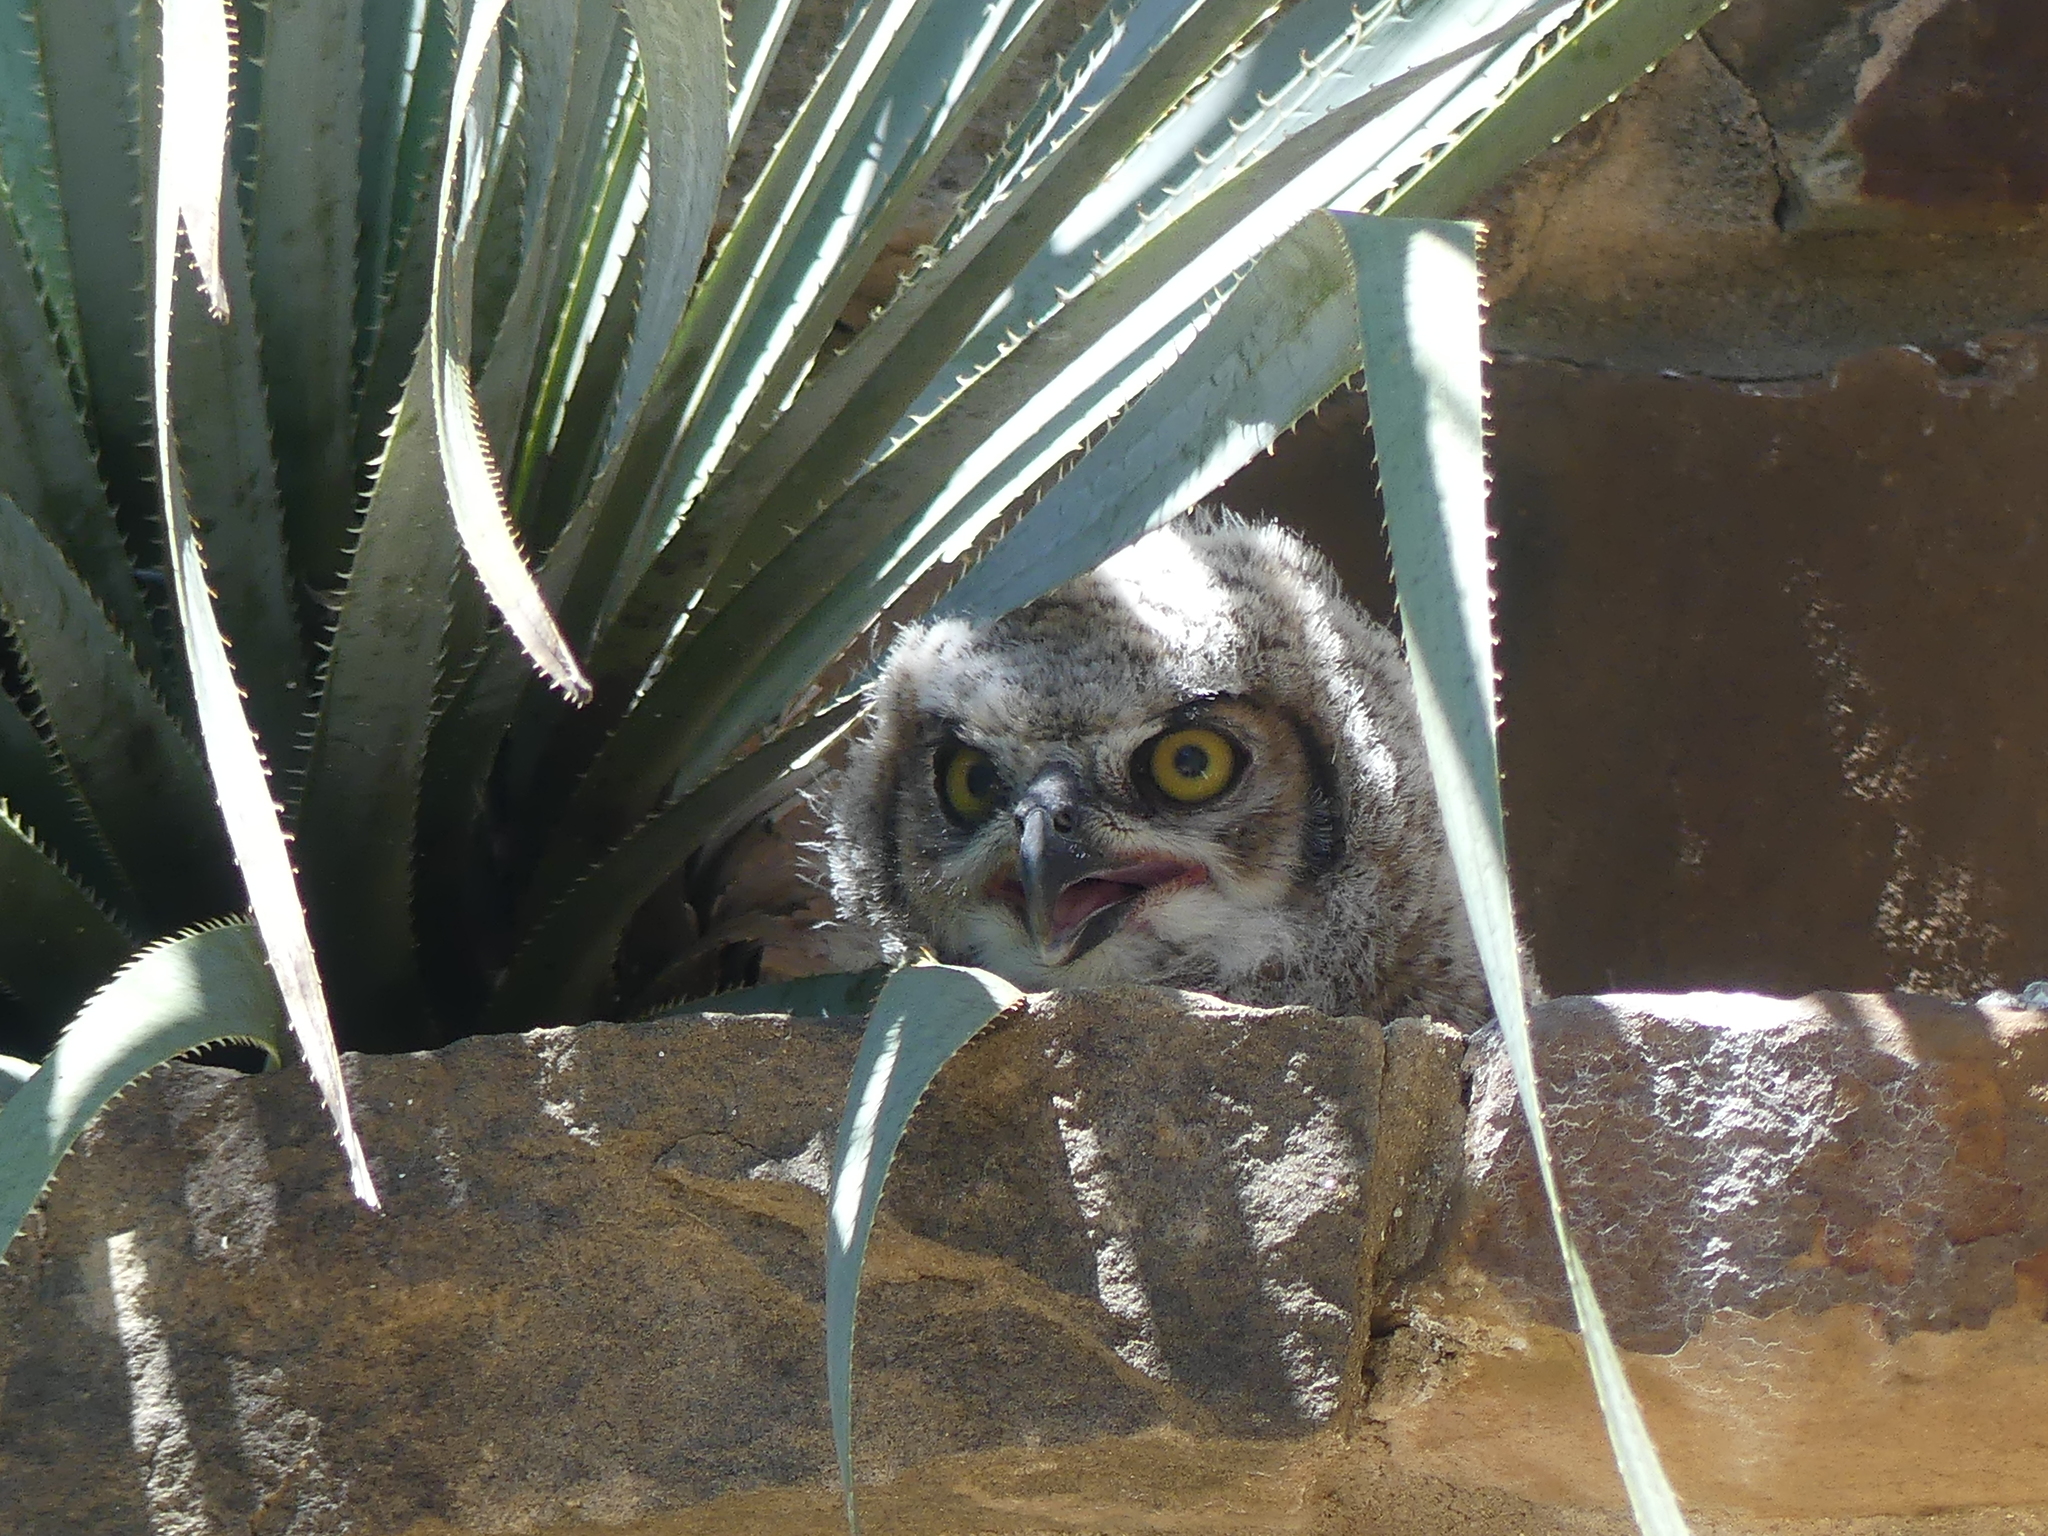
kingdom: Animalia
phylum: Chordata
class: Aves
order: Strigiformes
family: Strigidae
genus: Bubo
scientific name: Bubo virginianus
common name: Great horned owl
